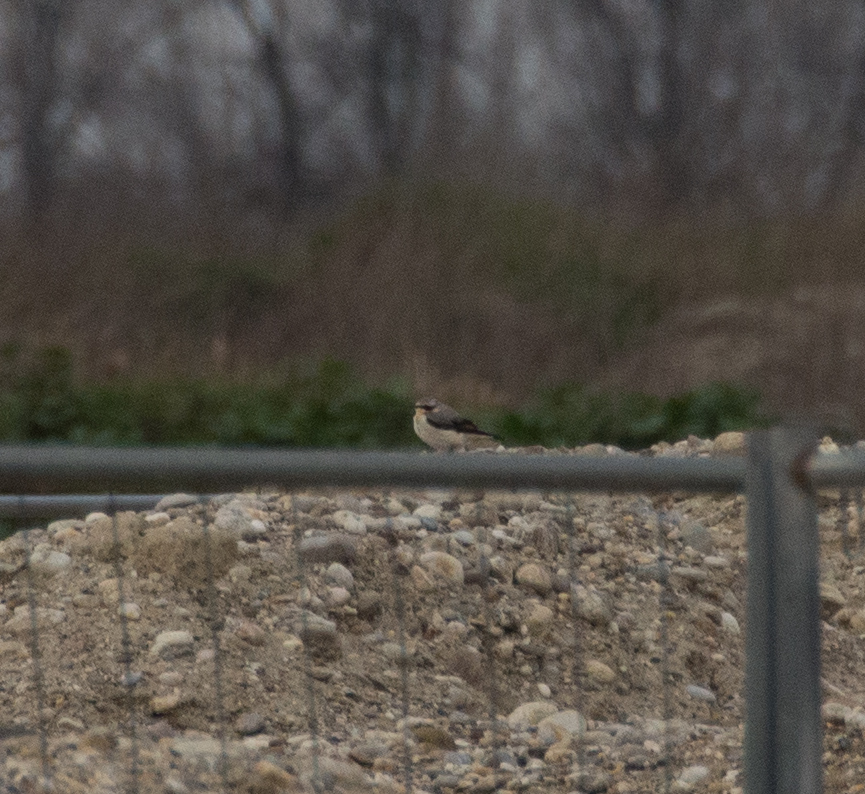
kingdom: Animalia
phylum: Chordata
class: Aves
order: Passeriformes
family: Muscicapidae
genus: Oenanthe
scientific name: Oenanthe oenanthe
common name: Northern wheatear
